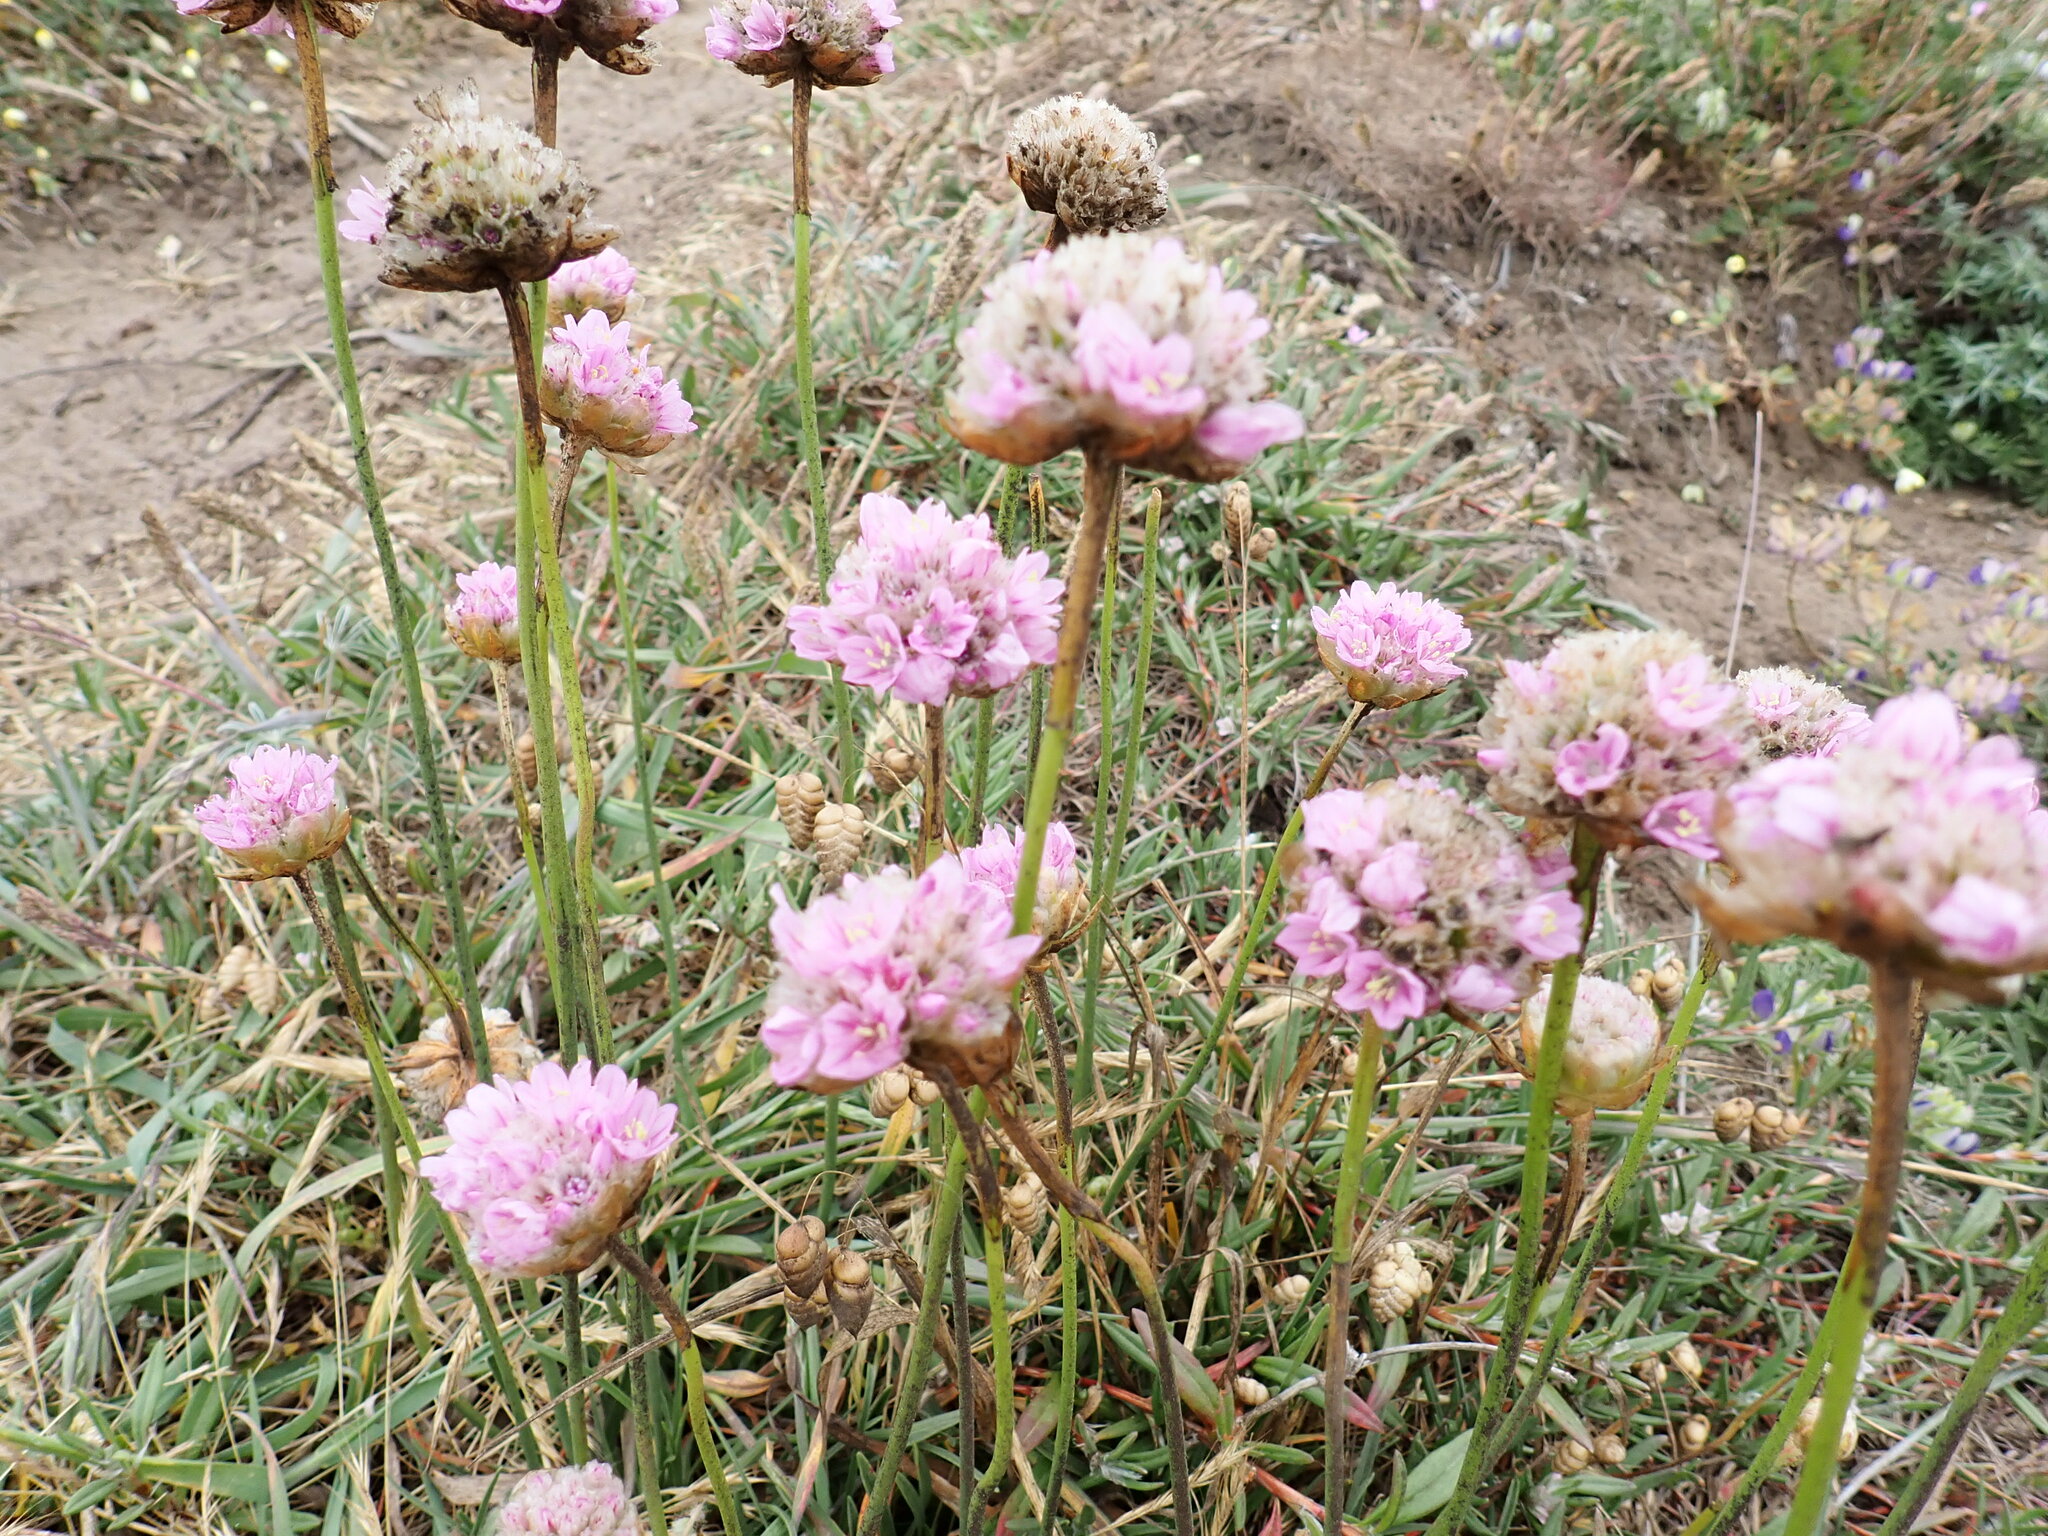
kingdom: Plantae
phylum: Tracheophyta
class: Magnoliopsida
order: Caryophyllales
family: Plumbaginaceae
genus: Armeria
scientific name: Armeria maritima
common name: Thrift
